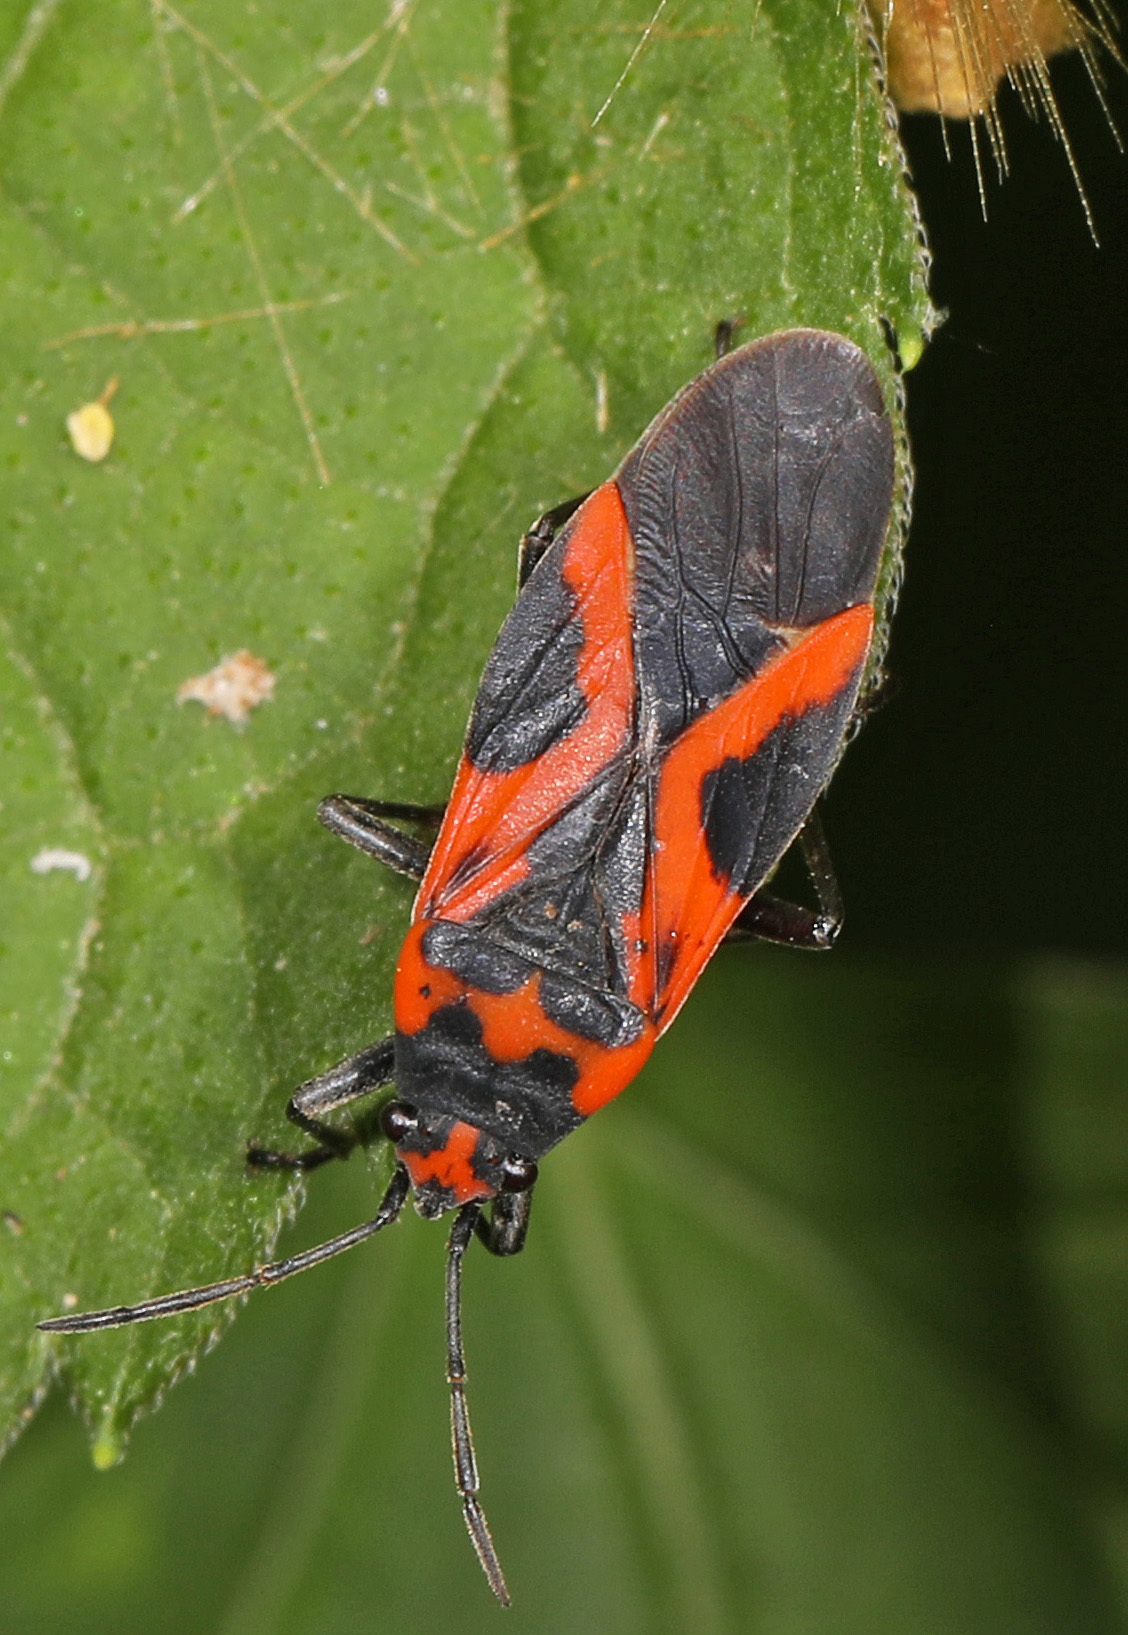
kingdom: Animalia
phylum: Arthropoda
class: Insecta
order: Hemiptera
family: Lygaeidae
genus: Lygaeus
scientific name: Lygaeus turcicus
